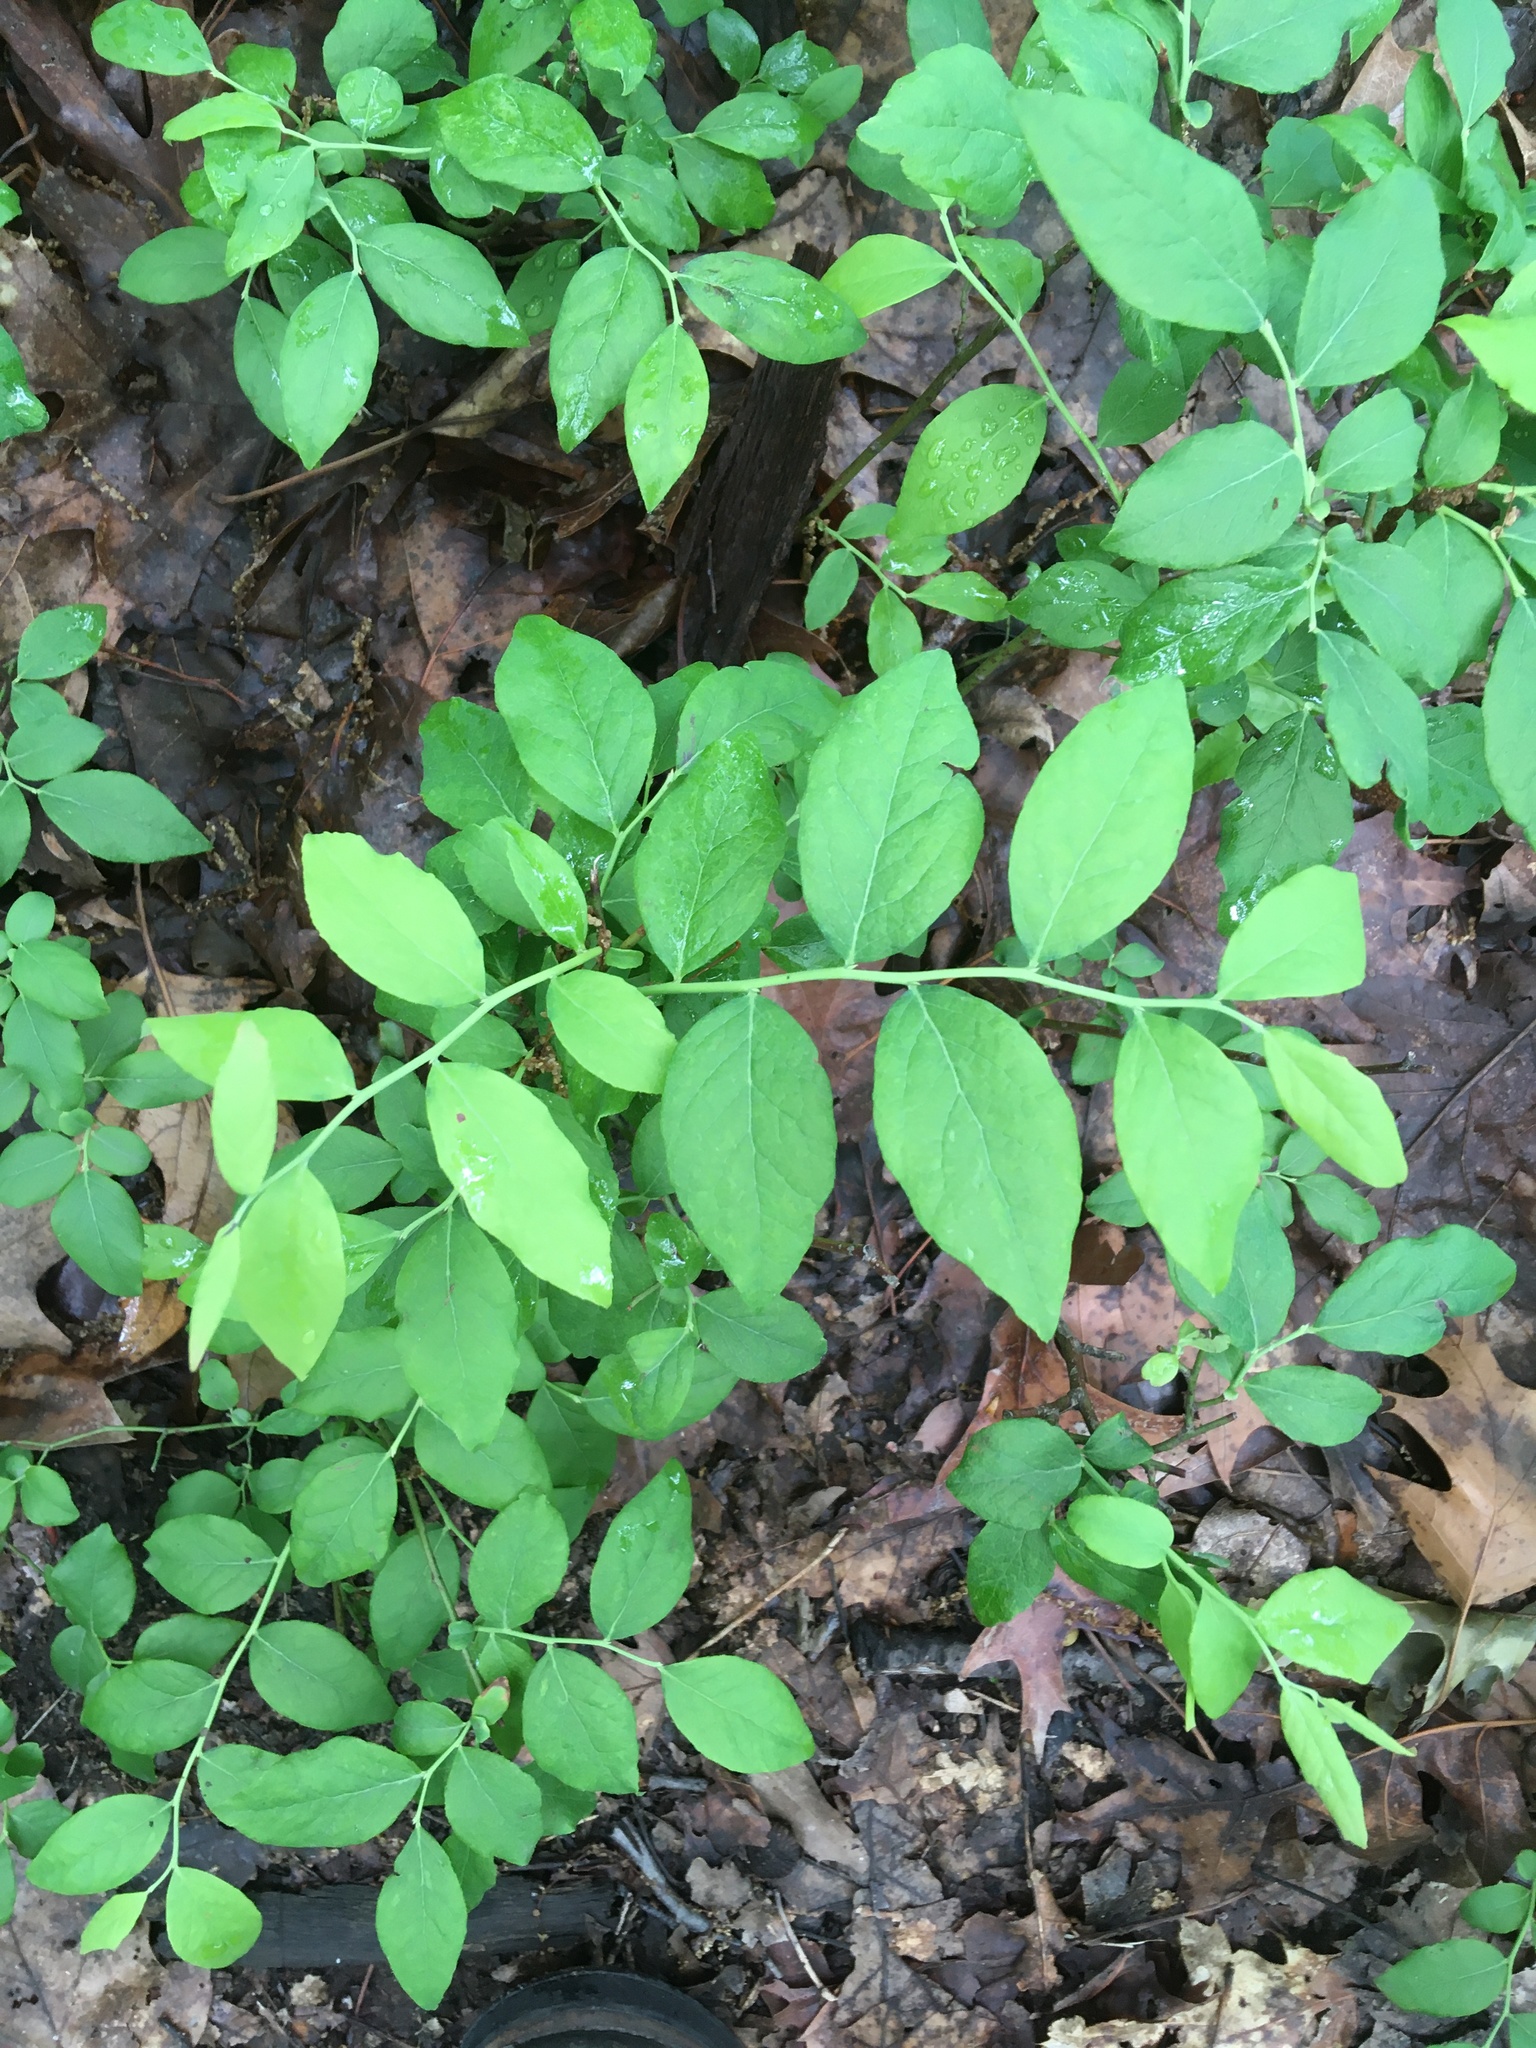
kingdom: Plantae
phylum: Tracheophyta
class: Magnoliopsida
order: Ericales
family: Ericaceae
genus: Vaccinium
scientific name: Vaccinium pallidum
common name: Blue ridge blueberry
